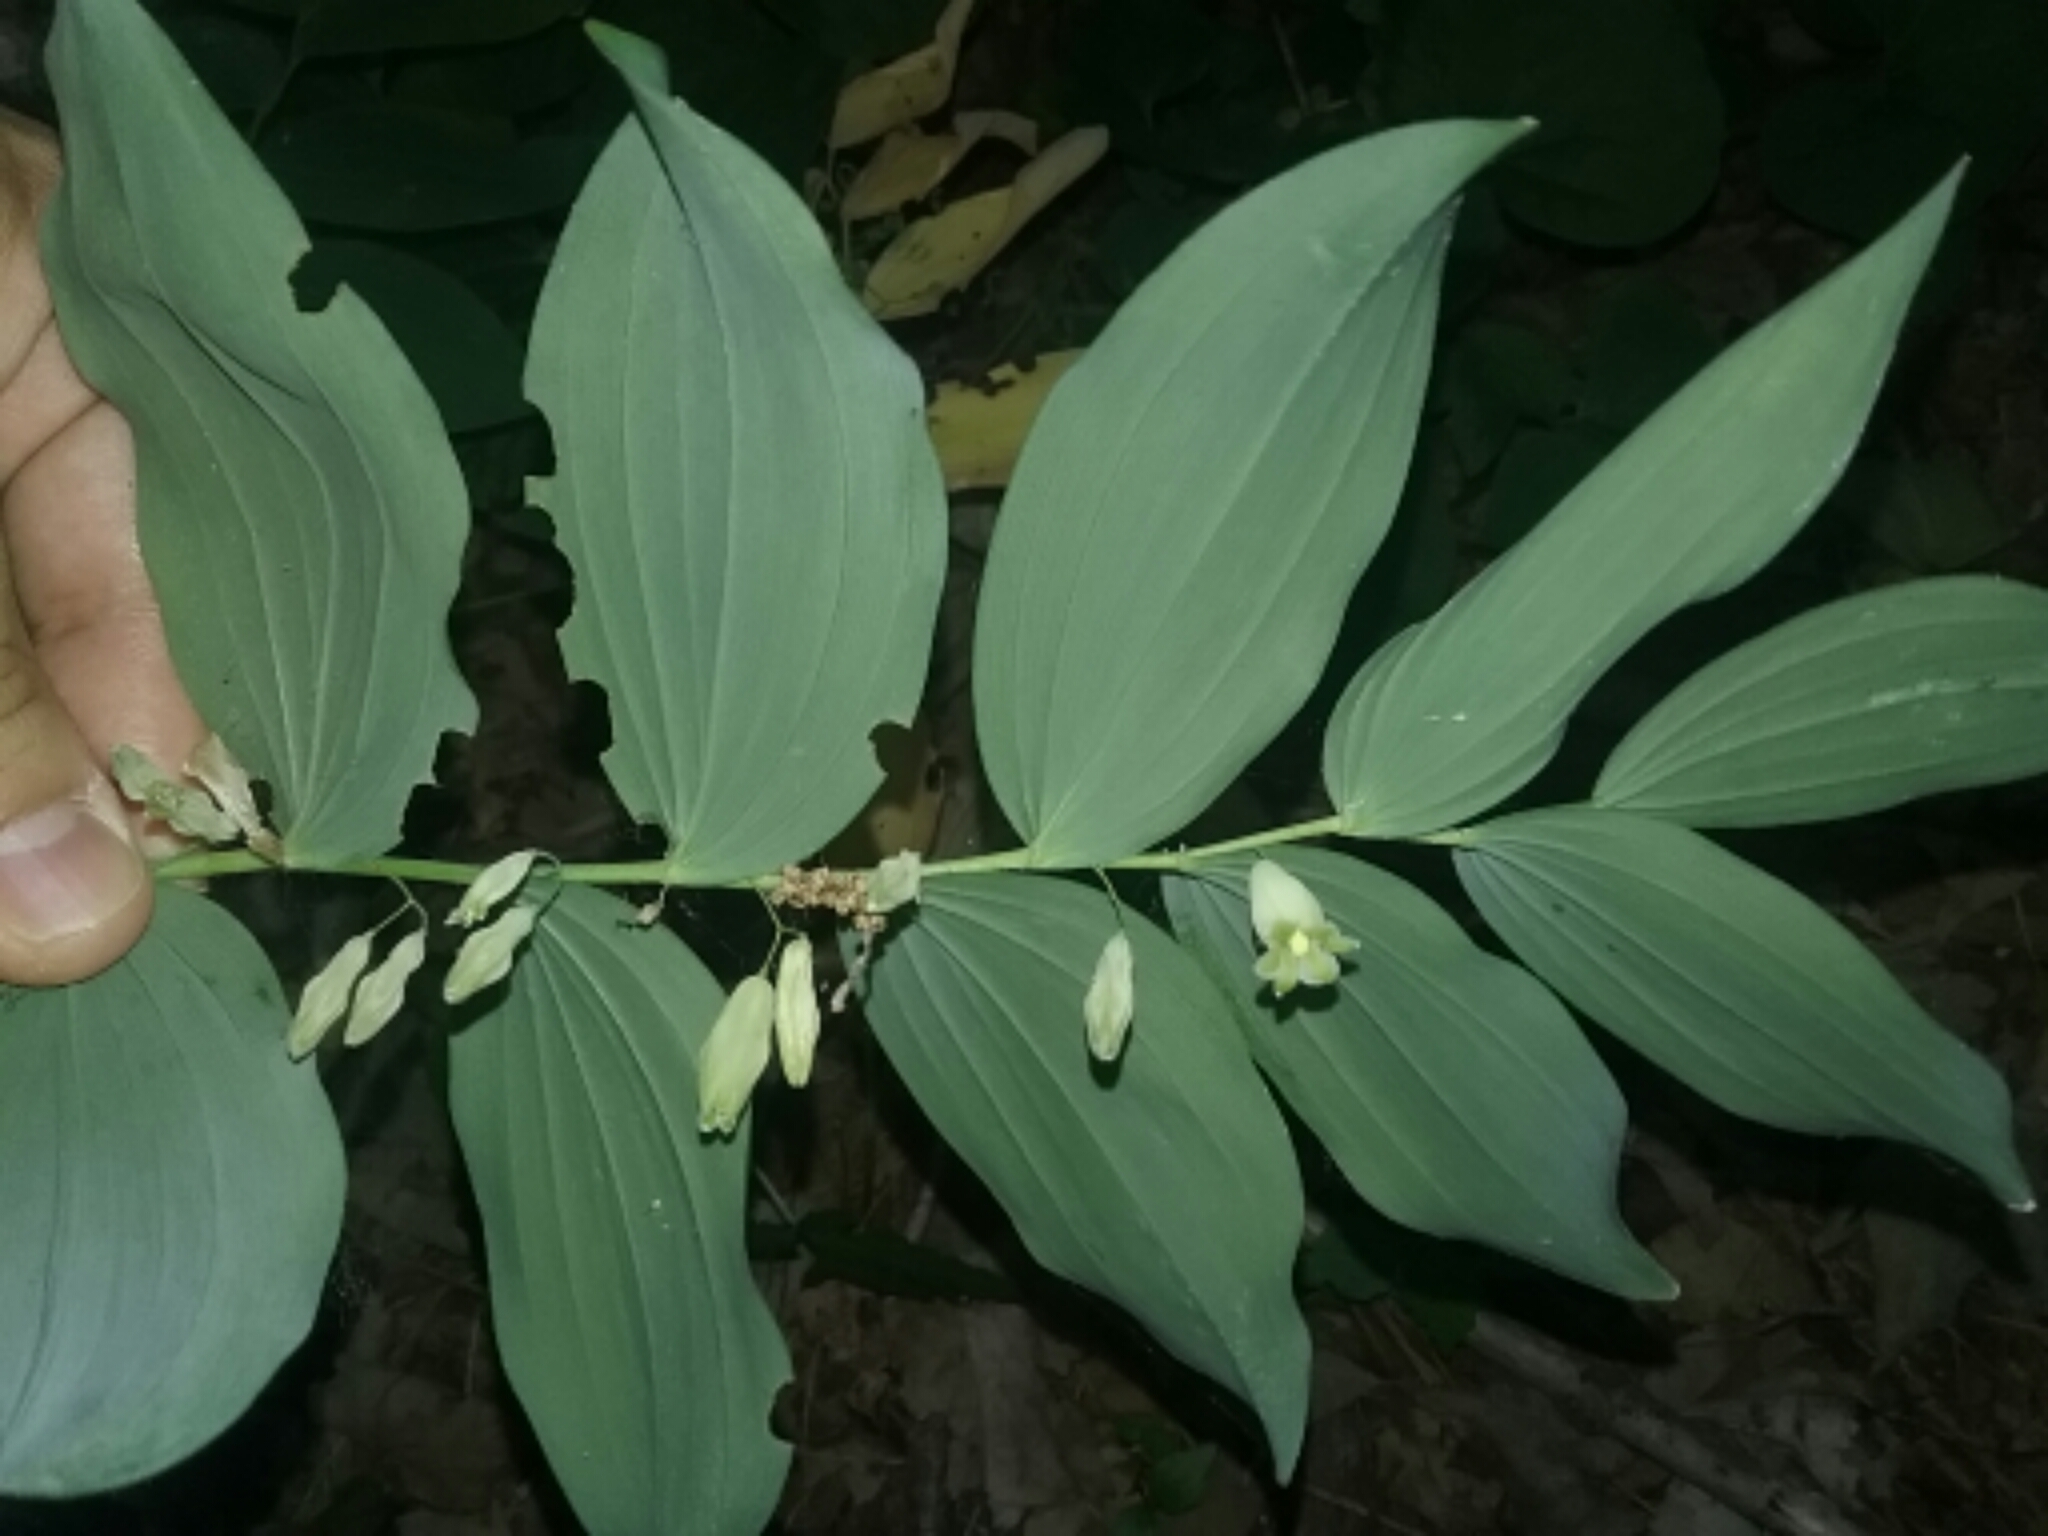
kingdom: Plantae
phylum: Tracheophyta
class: Liliopsida
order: Asparagales
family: Asparagaceae
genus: Polygonatum
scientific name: Polygonatum biflorum
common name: American solomon's-seal
